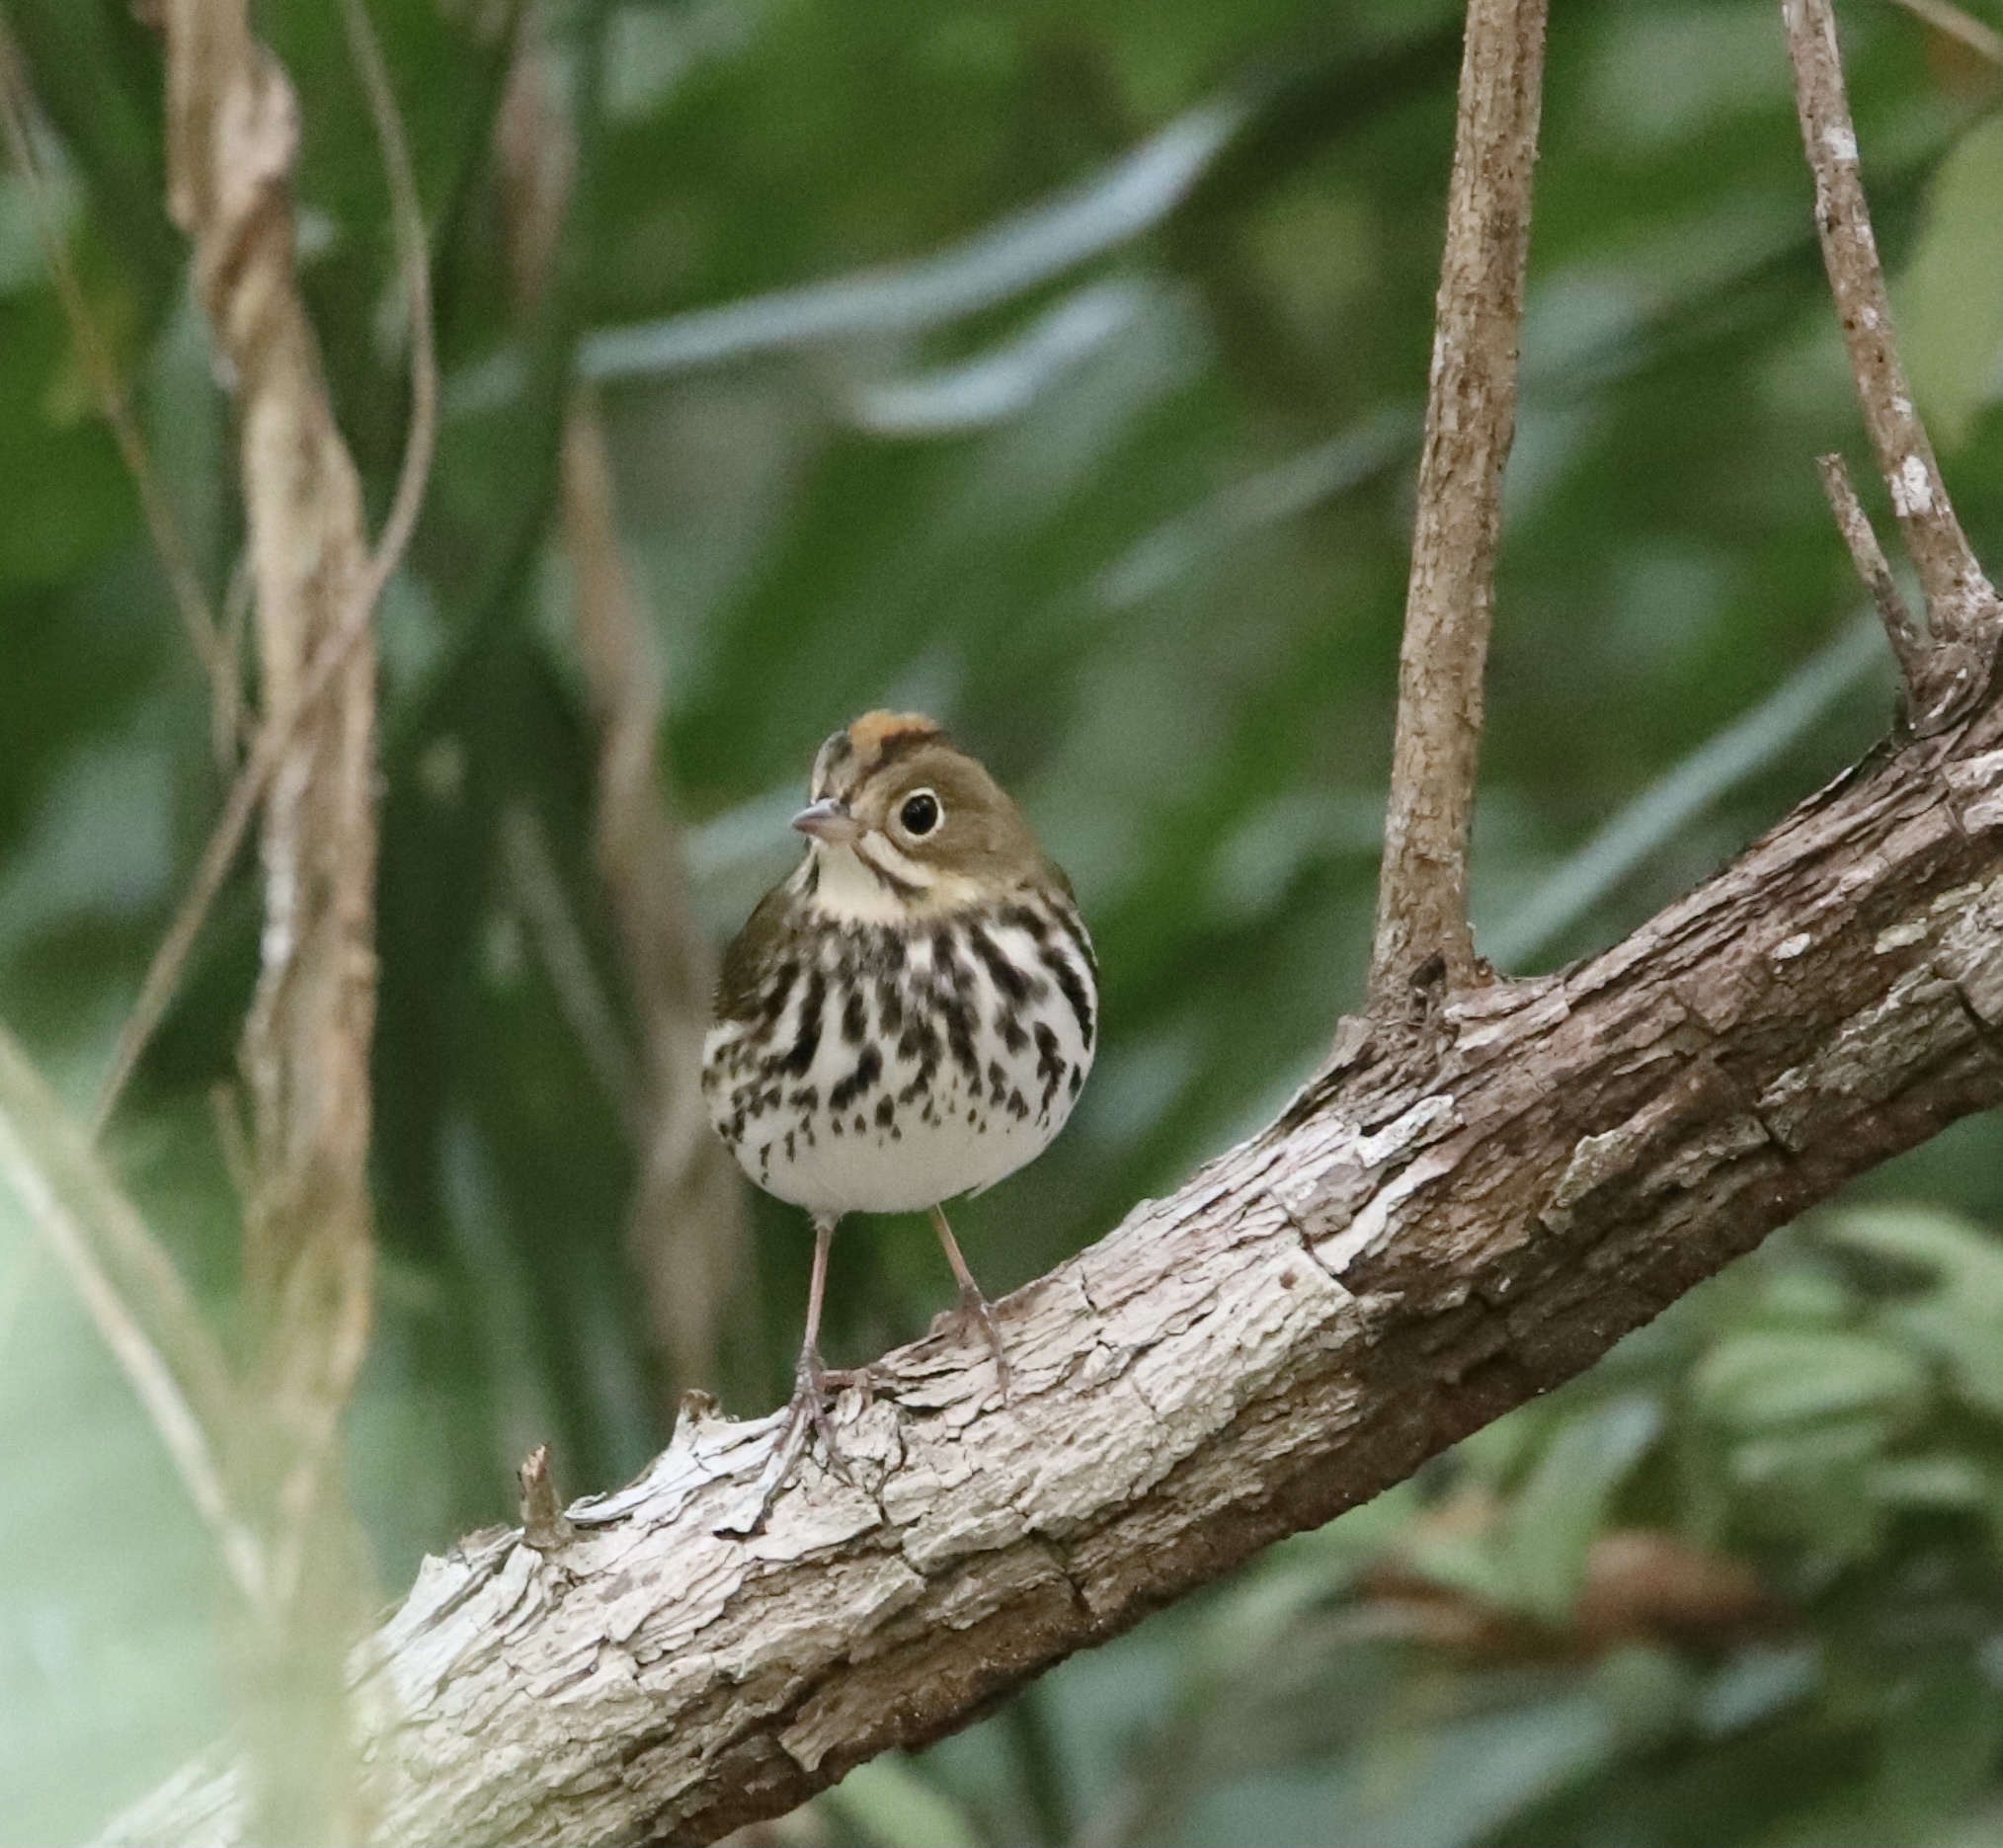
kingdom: Animalia
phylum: Chordata
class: Aves
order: Passeriformes
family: Parulidae
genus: Seiurus
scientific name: Seiurus aurocapilla
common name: Ovenbird
